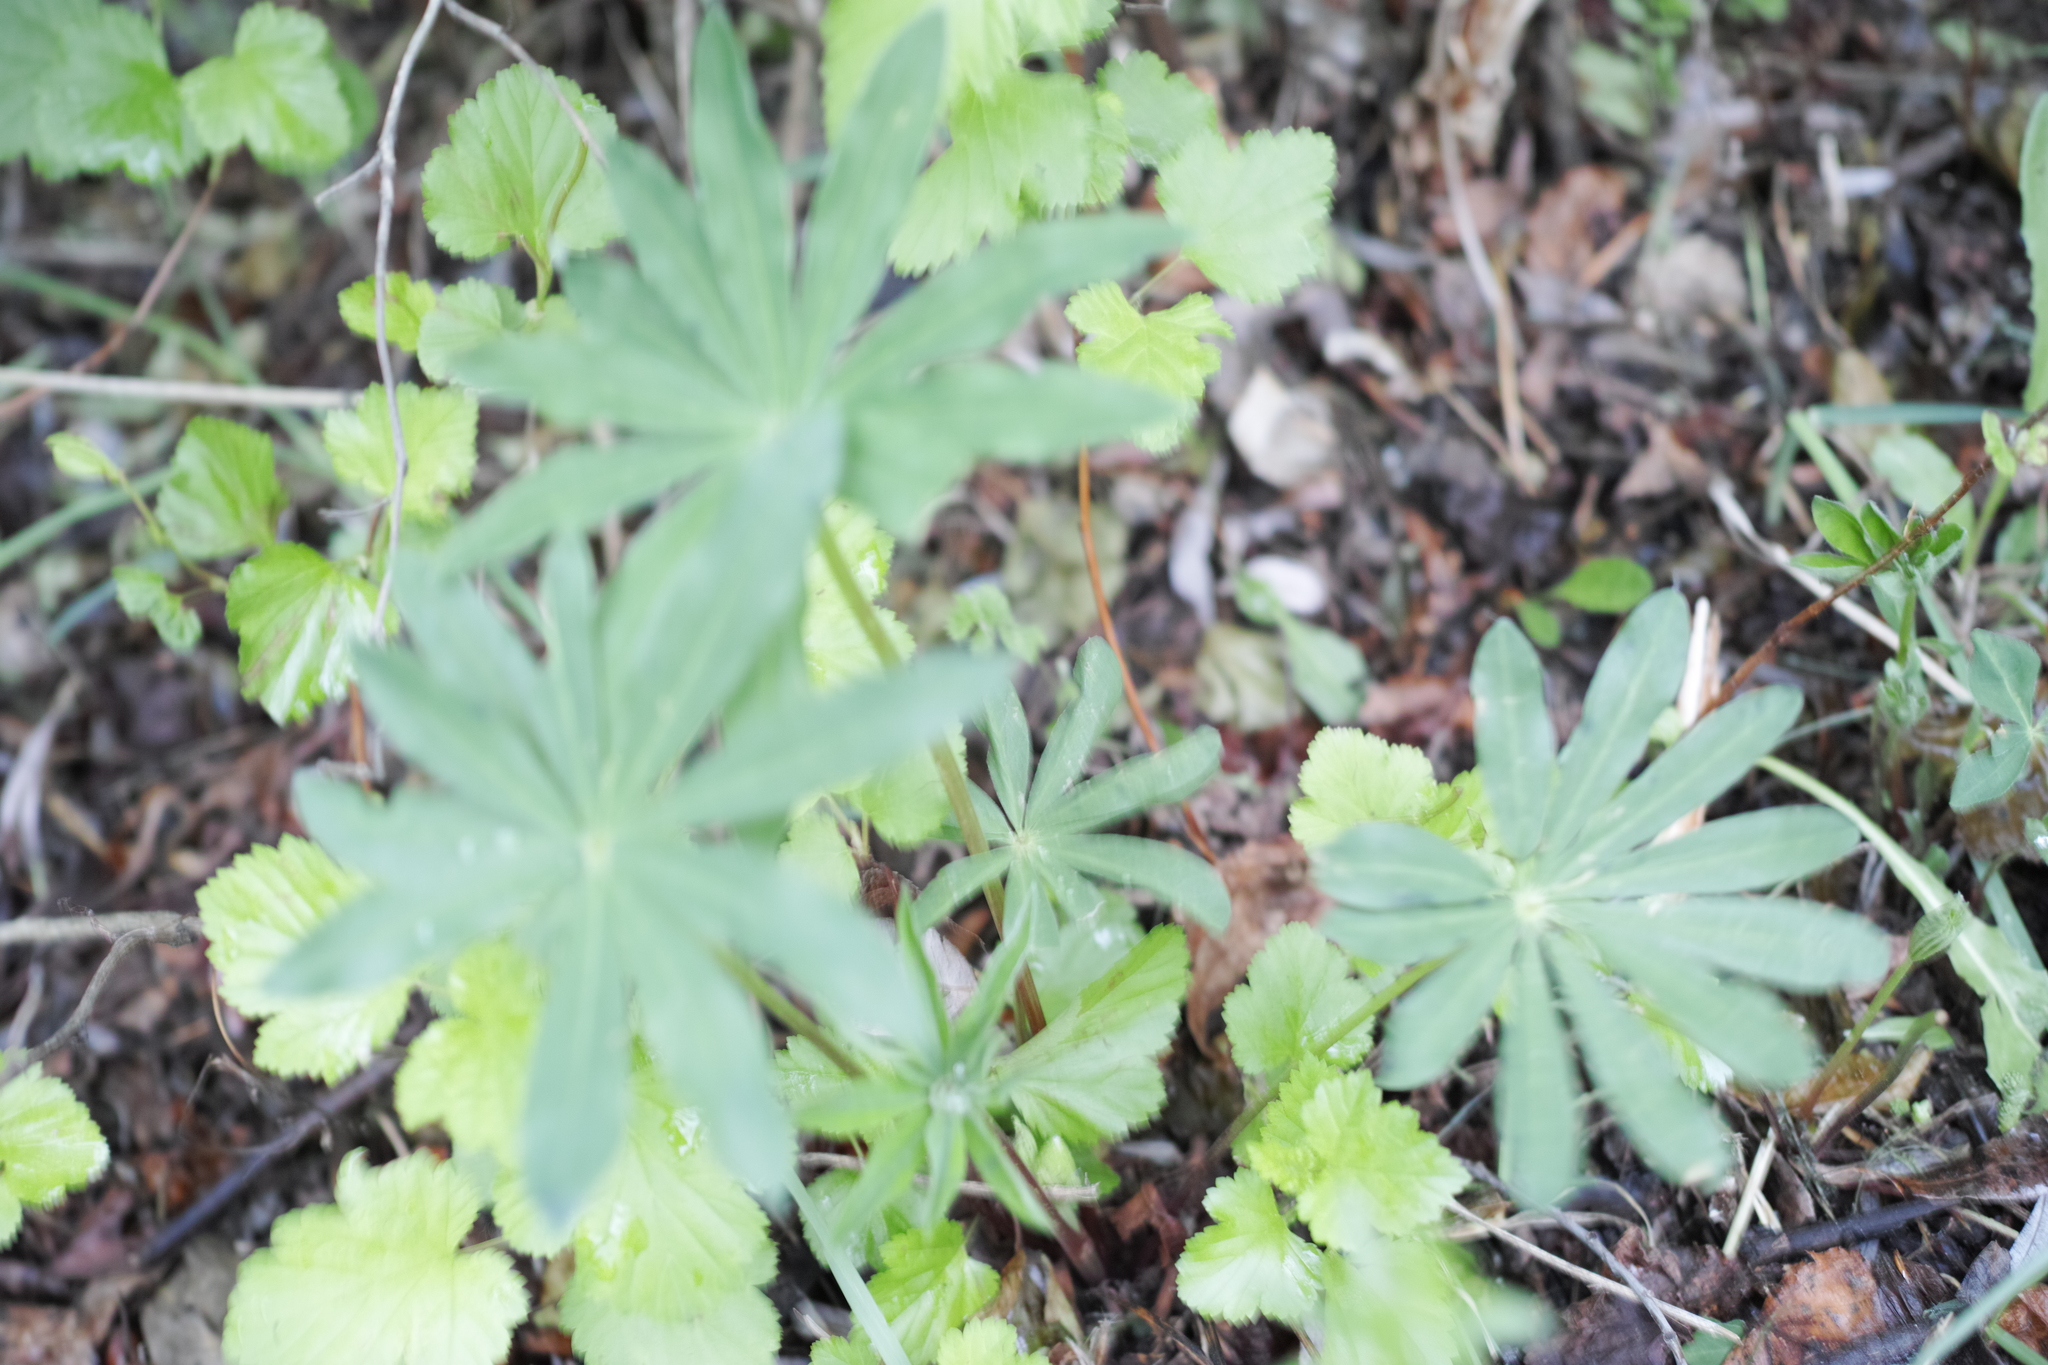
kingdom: Plantae
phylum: Tracheophyta
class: Magnoliopsida
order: Fabales
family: Fabaceae
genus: Lupinus
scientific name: Lupinus polyphyllus
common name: Garden lupin
